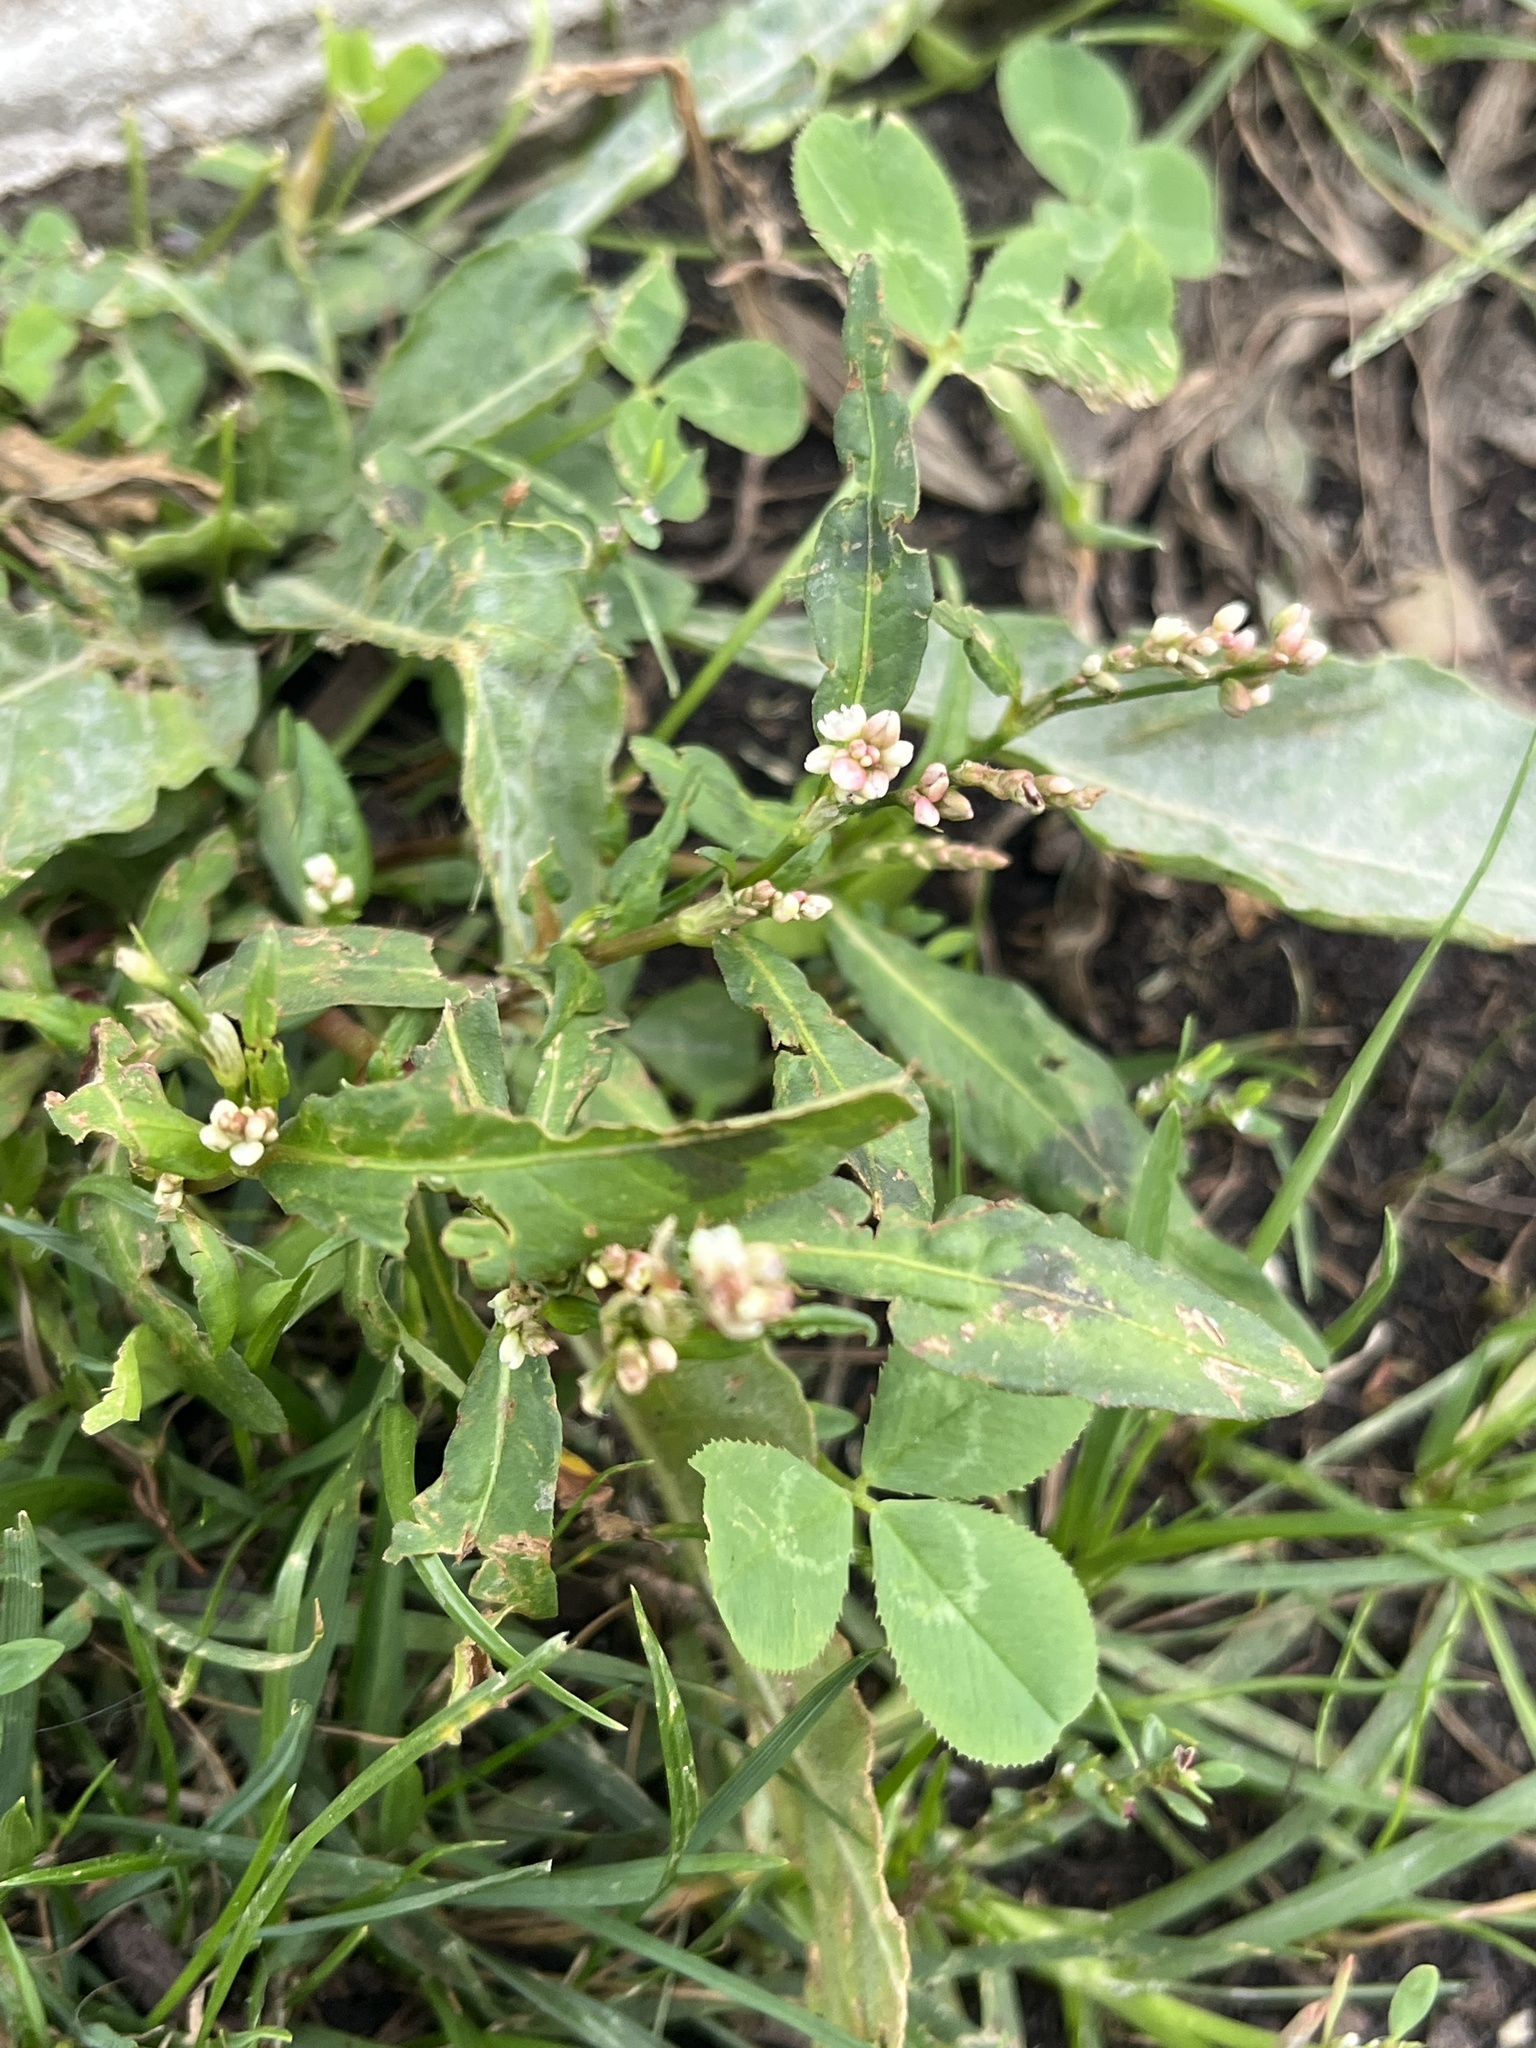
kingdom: Plantae
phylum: Tracheophyta
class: Magnoliopsida
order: Caryophyllales
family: Polygonaceae
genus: Persicaria
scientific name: Persicaria maculosa
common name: Redshank
